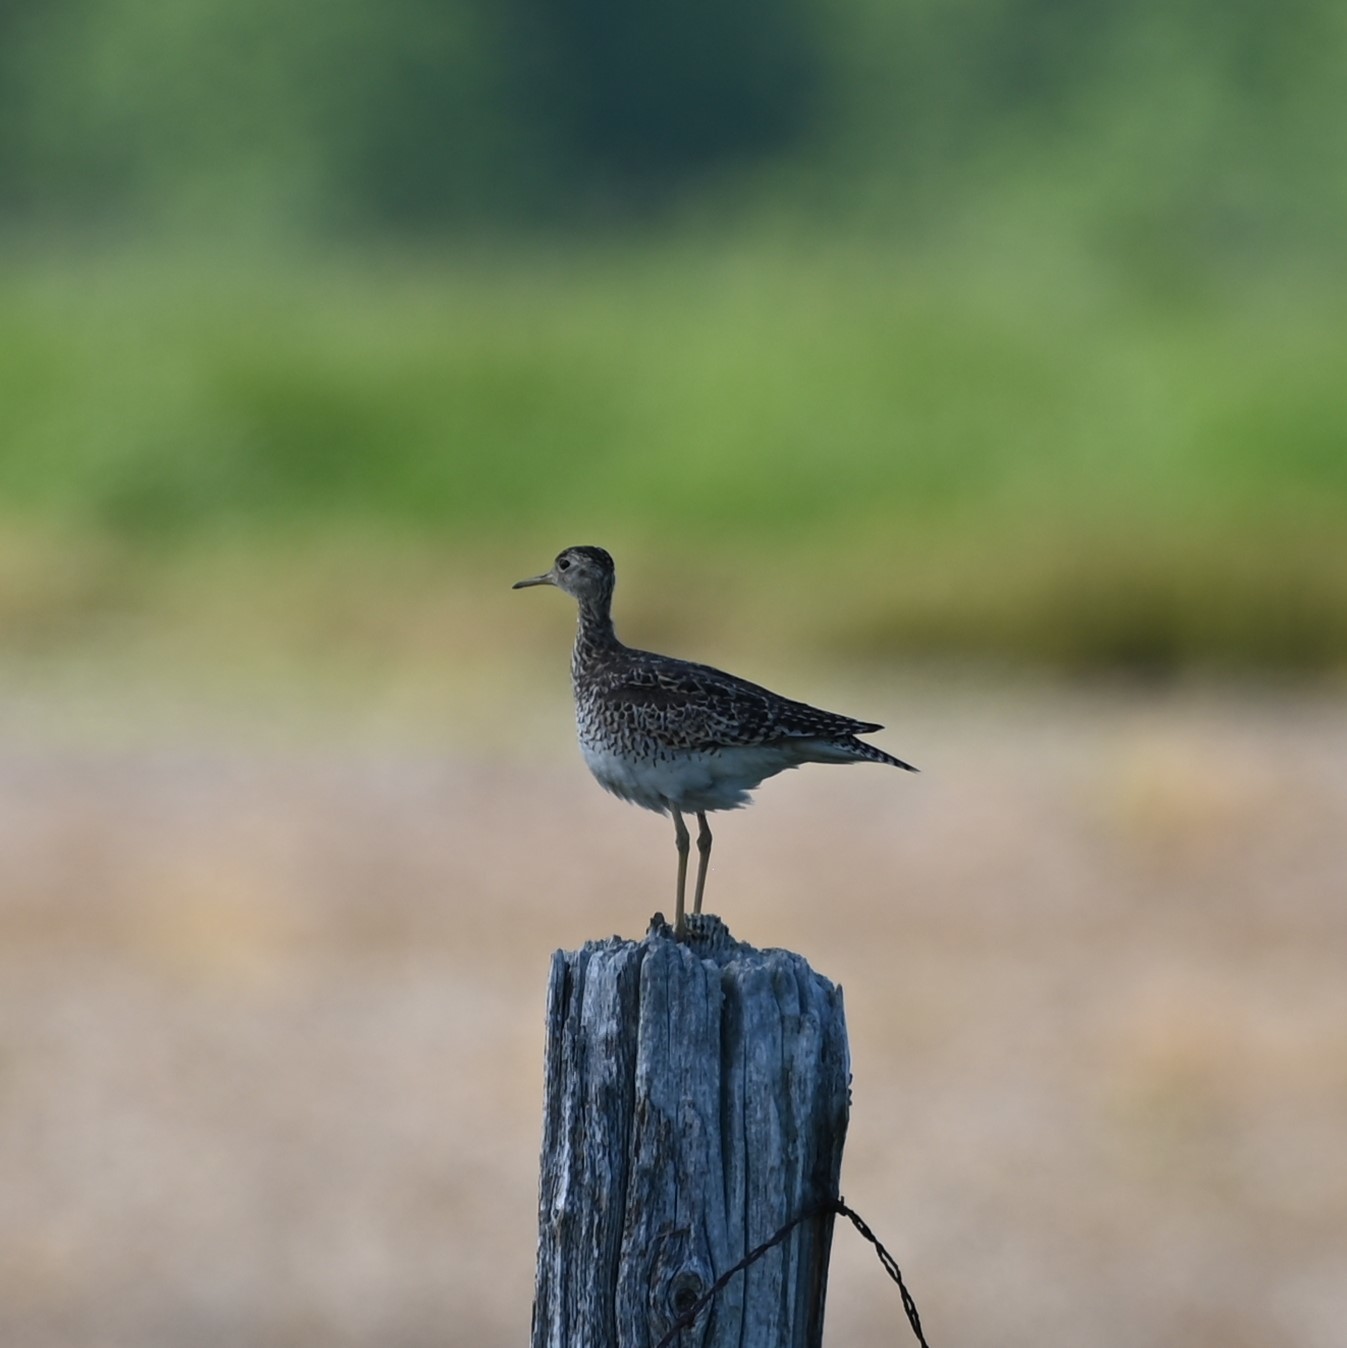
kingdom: Animalia
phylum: Chordata
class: Aves
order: Charadriiformes
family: Scolopacidae
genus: Bartramia
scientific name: Bartramia longicauda
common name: Upland sandpiper
